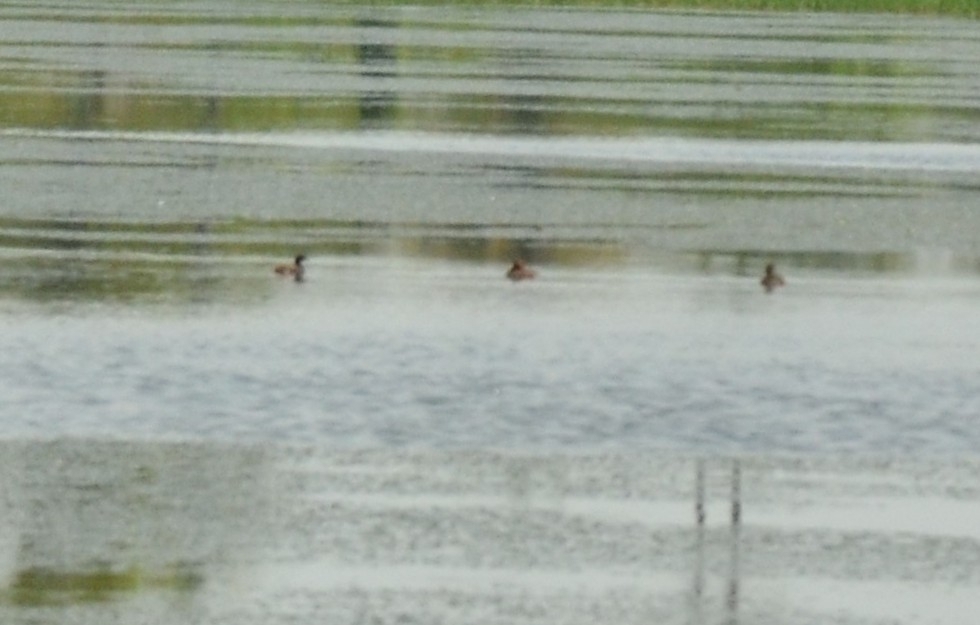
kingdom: Animalia
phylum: Chordata
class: Aves
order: Podicipediformes
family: Podicipedidae
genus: Tachybaptus
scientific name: Tachybaptus ruficollis
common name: Little grebe
